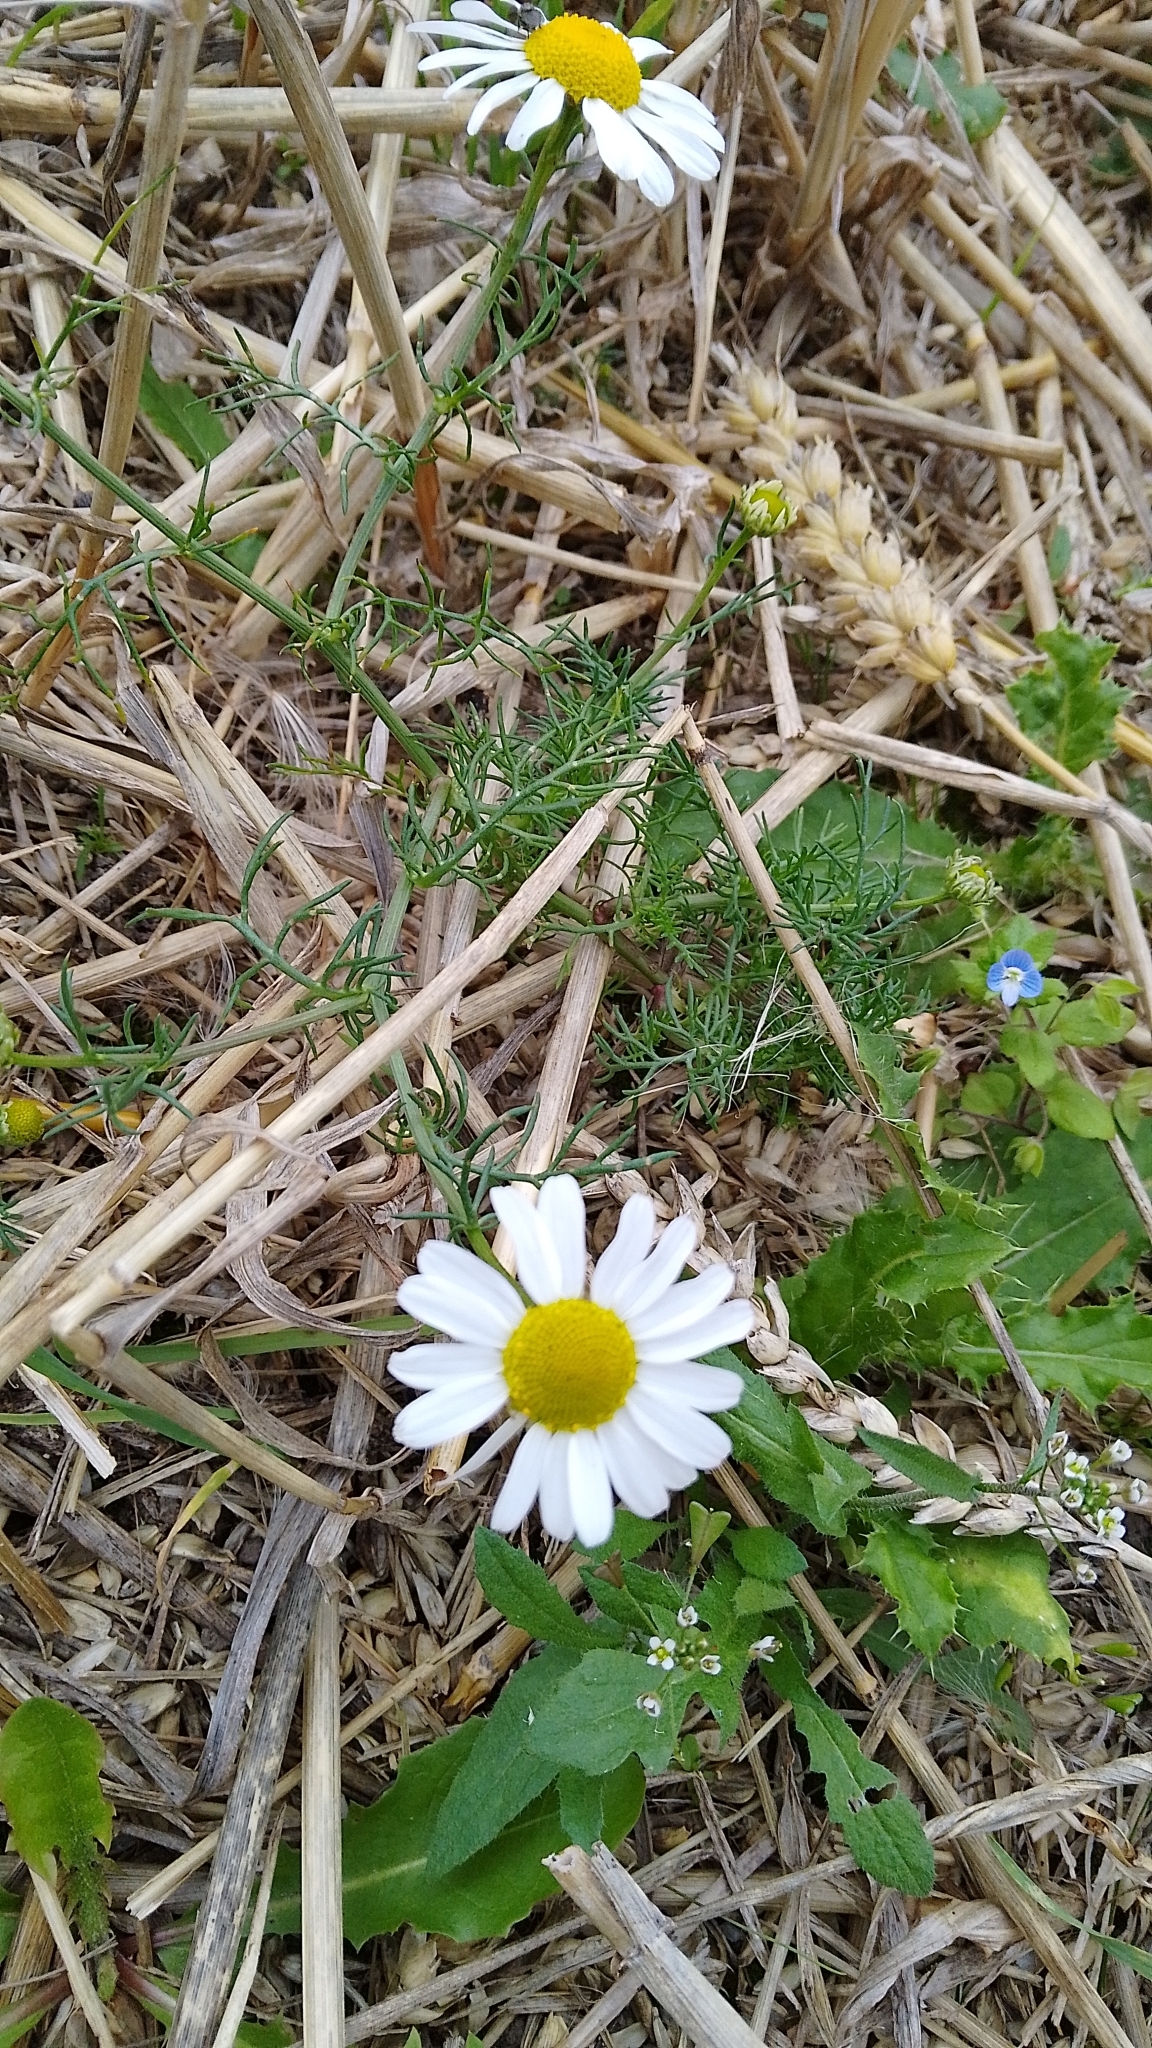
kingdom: Plantae
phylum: Tracheophyta
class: Magnoliopsida
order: Asterales
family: Asteraceae
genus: Tripleurospermum
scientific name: Tripleurospermum inodorum
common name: Scentless mayweed
